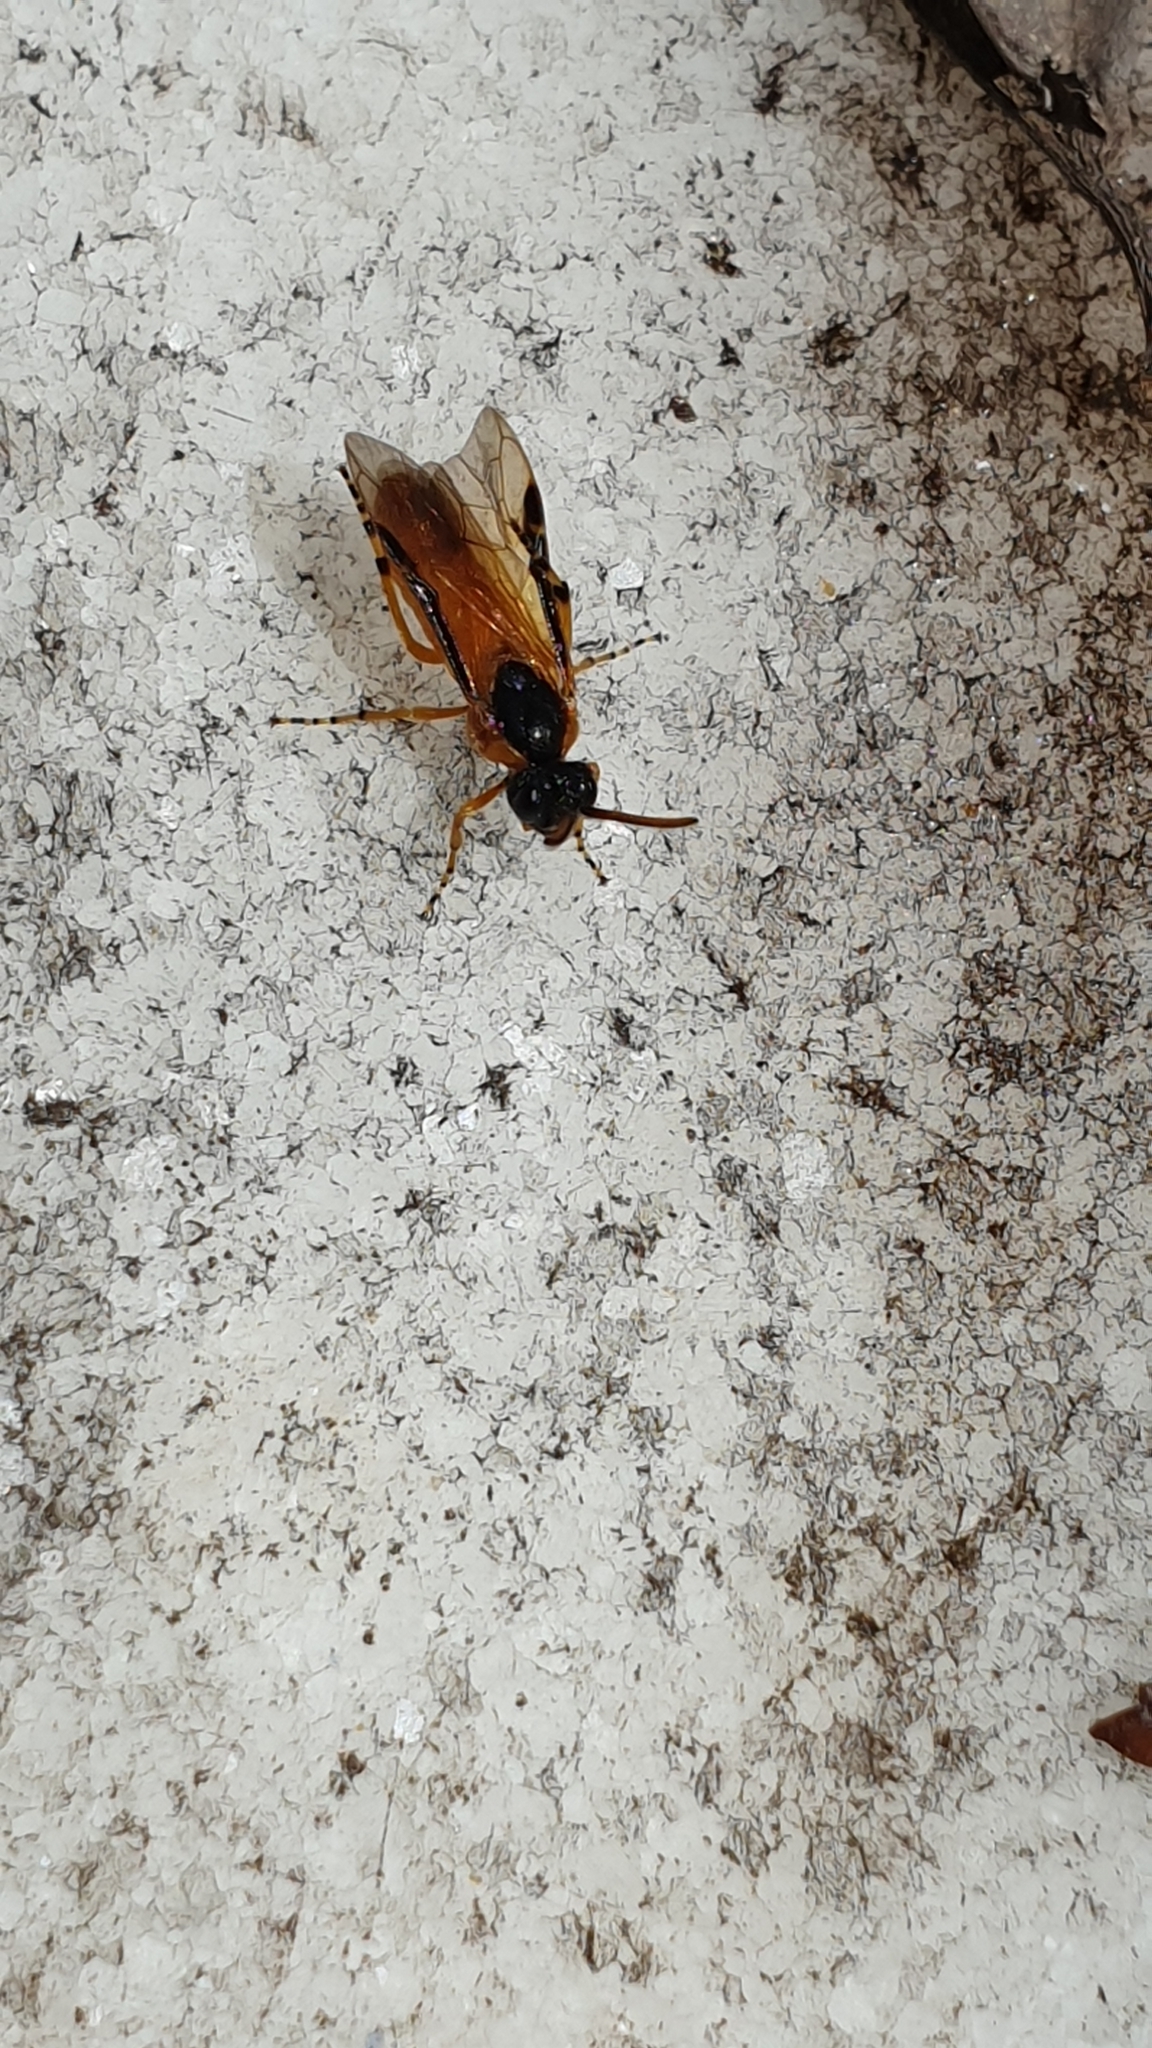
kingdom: Animalia
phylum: Arthropoda
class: Insecta
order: Hymenoptera
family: Argidae
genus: Arge
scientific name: Arge ochropus
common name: Argid sawfly
